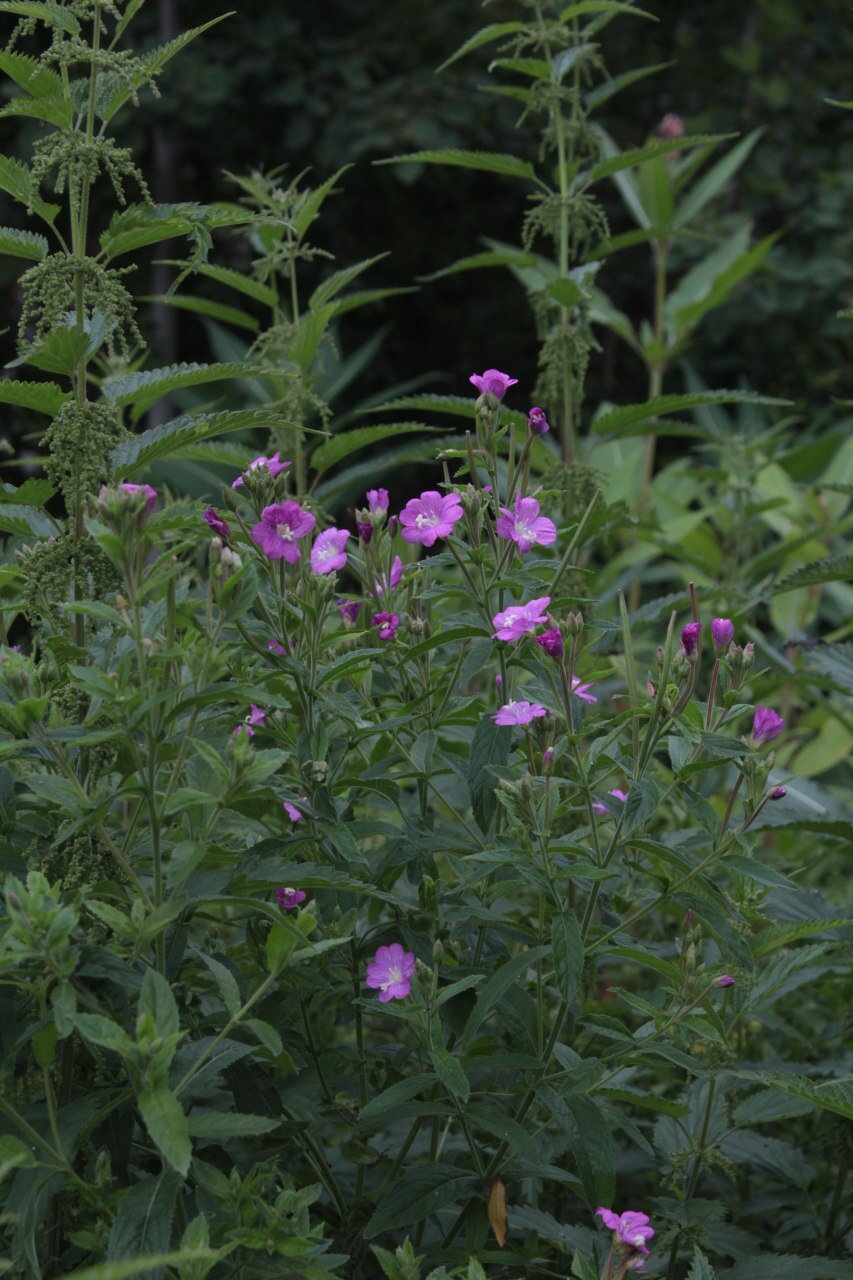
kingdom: Plantae
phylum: Tracheophyta
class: Magnoliopsida
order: Myrtales
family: Onagraceae
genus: Epilobium
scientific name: Epilobium hirsutum
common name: Great willowherb
